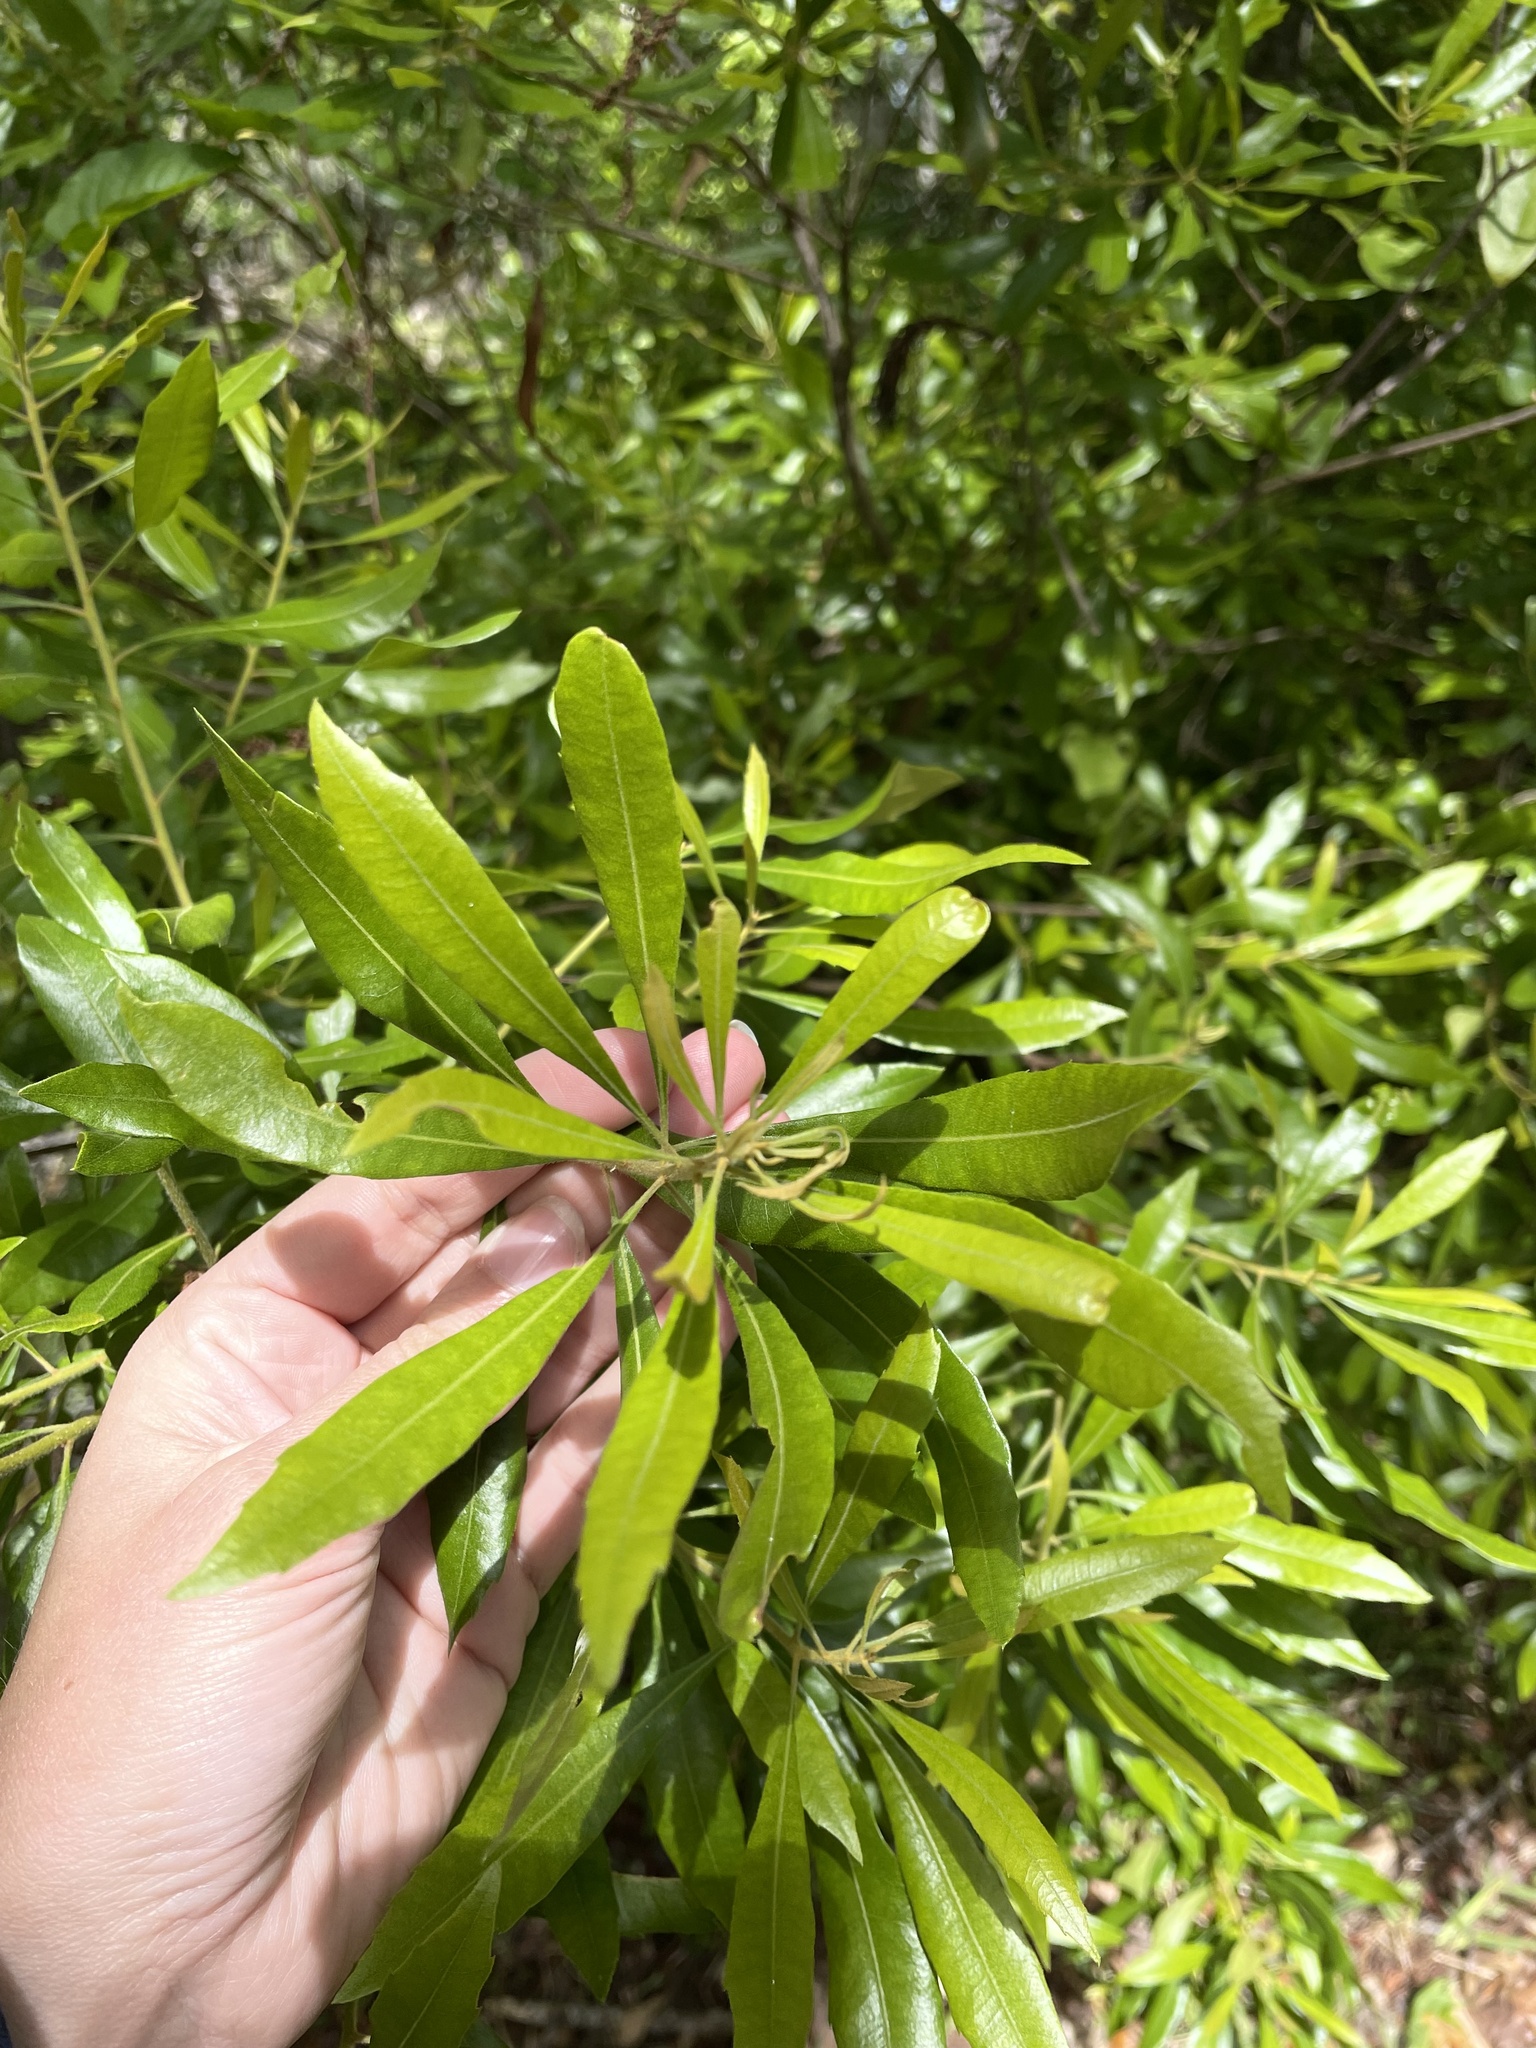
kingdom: Plantae
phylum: Tracheophyta
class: Magnoliopsida
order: Fagales
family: Myricaceae
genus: Morella
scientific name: Morella cerifera
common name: Wax myrtle
